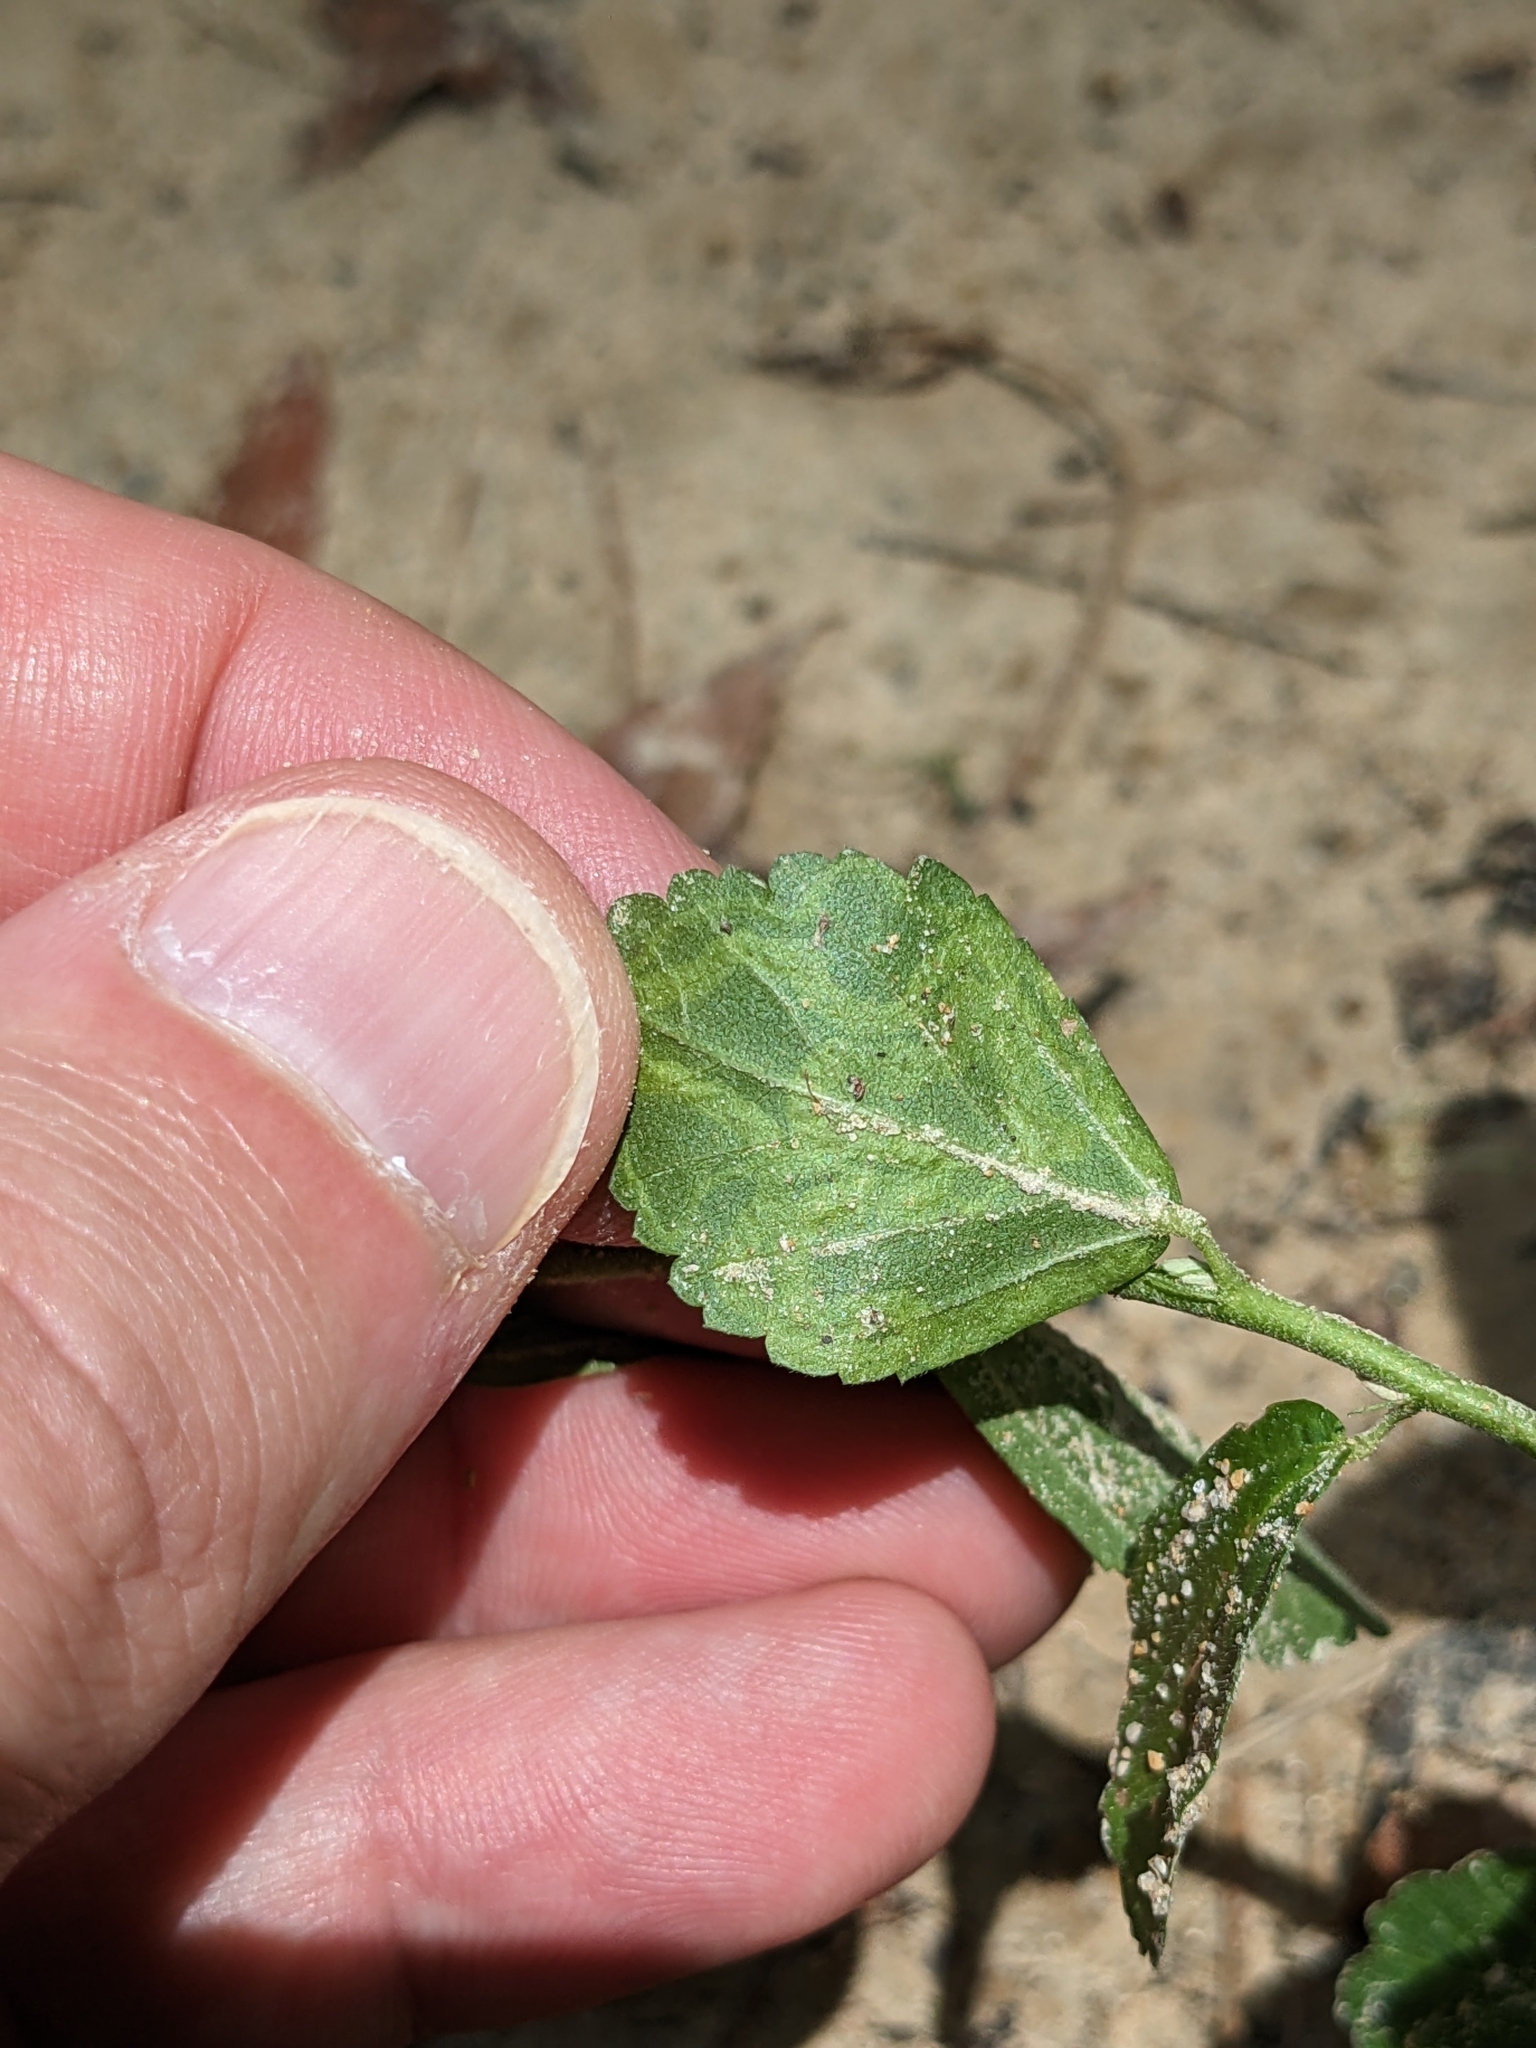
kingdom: Animalia
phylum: Arthropoda
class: Insecta
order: Diptera
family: Agromyzidae
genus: Calycomyza
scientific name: Calycomyza malvae
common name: Mallow leaf miner
